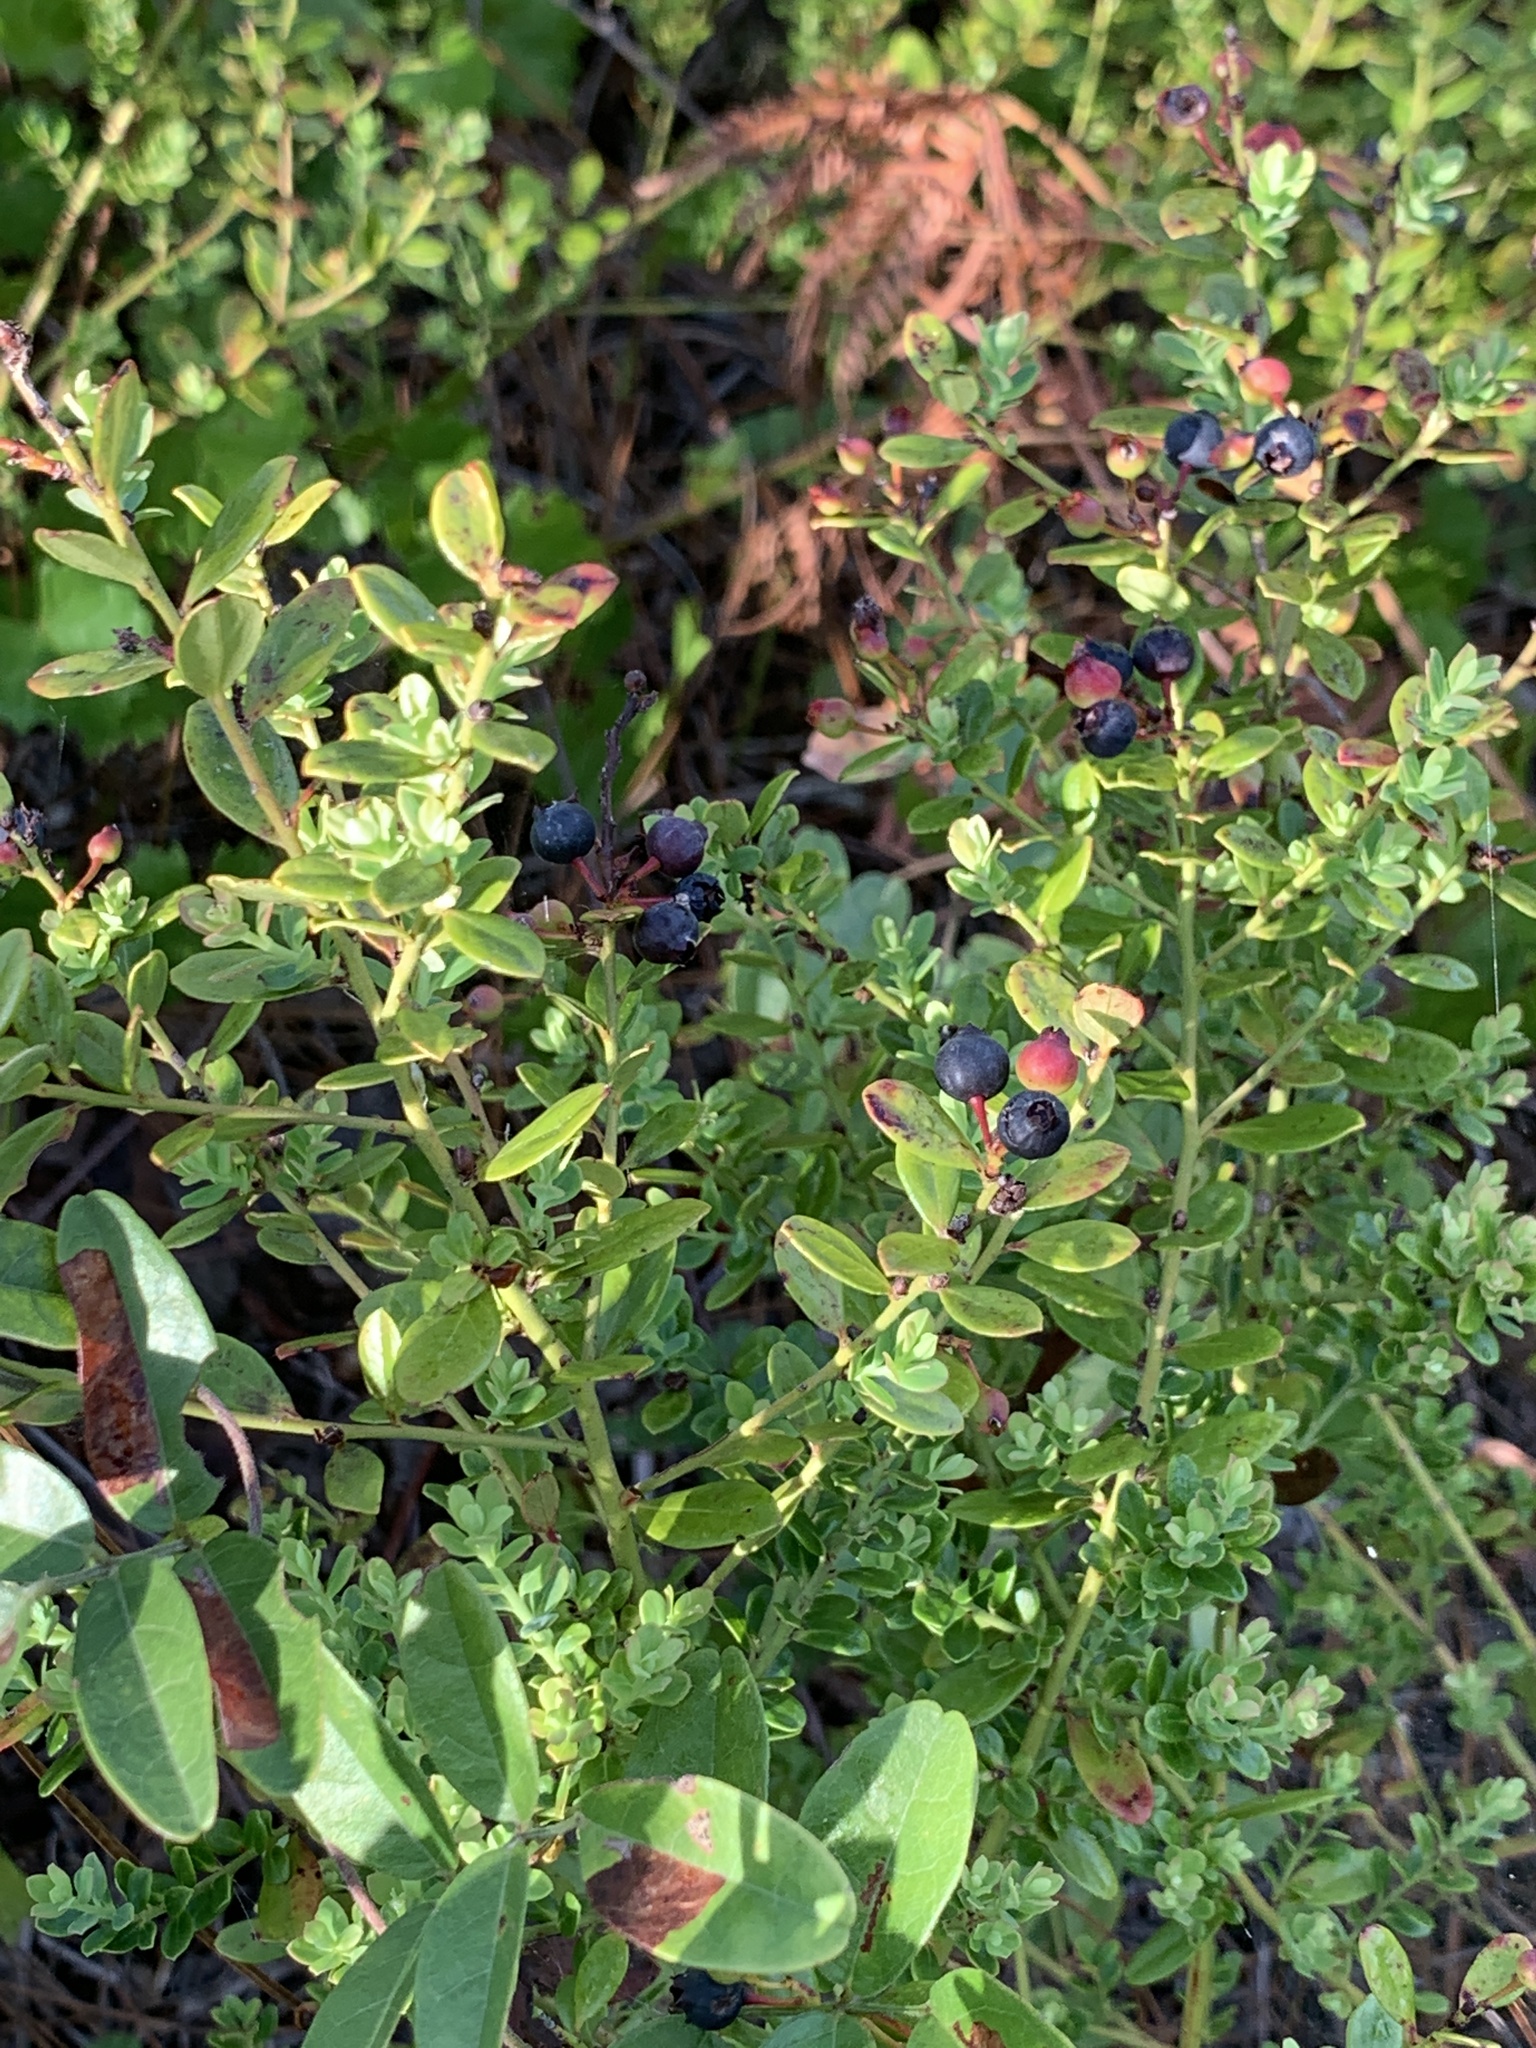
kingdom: Plantae
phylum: Tracheophyta
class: Magnoliopsida
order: Ericales
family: Ericaceae
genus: Vaccinium
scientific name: Vaccinium darrowii
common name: Darrow's blueberry
